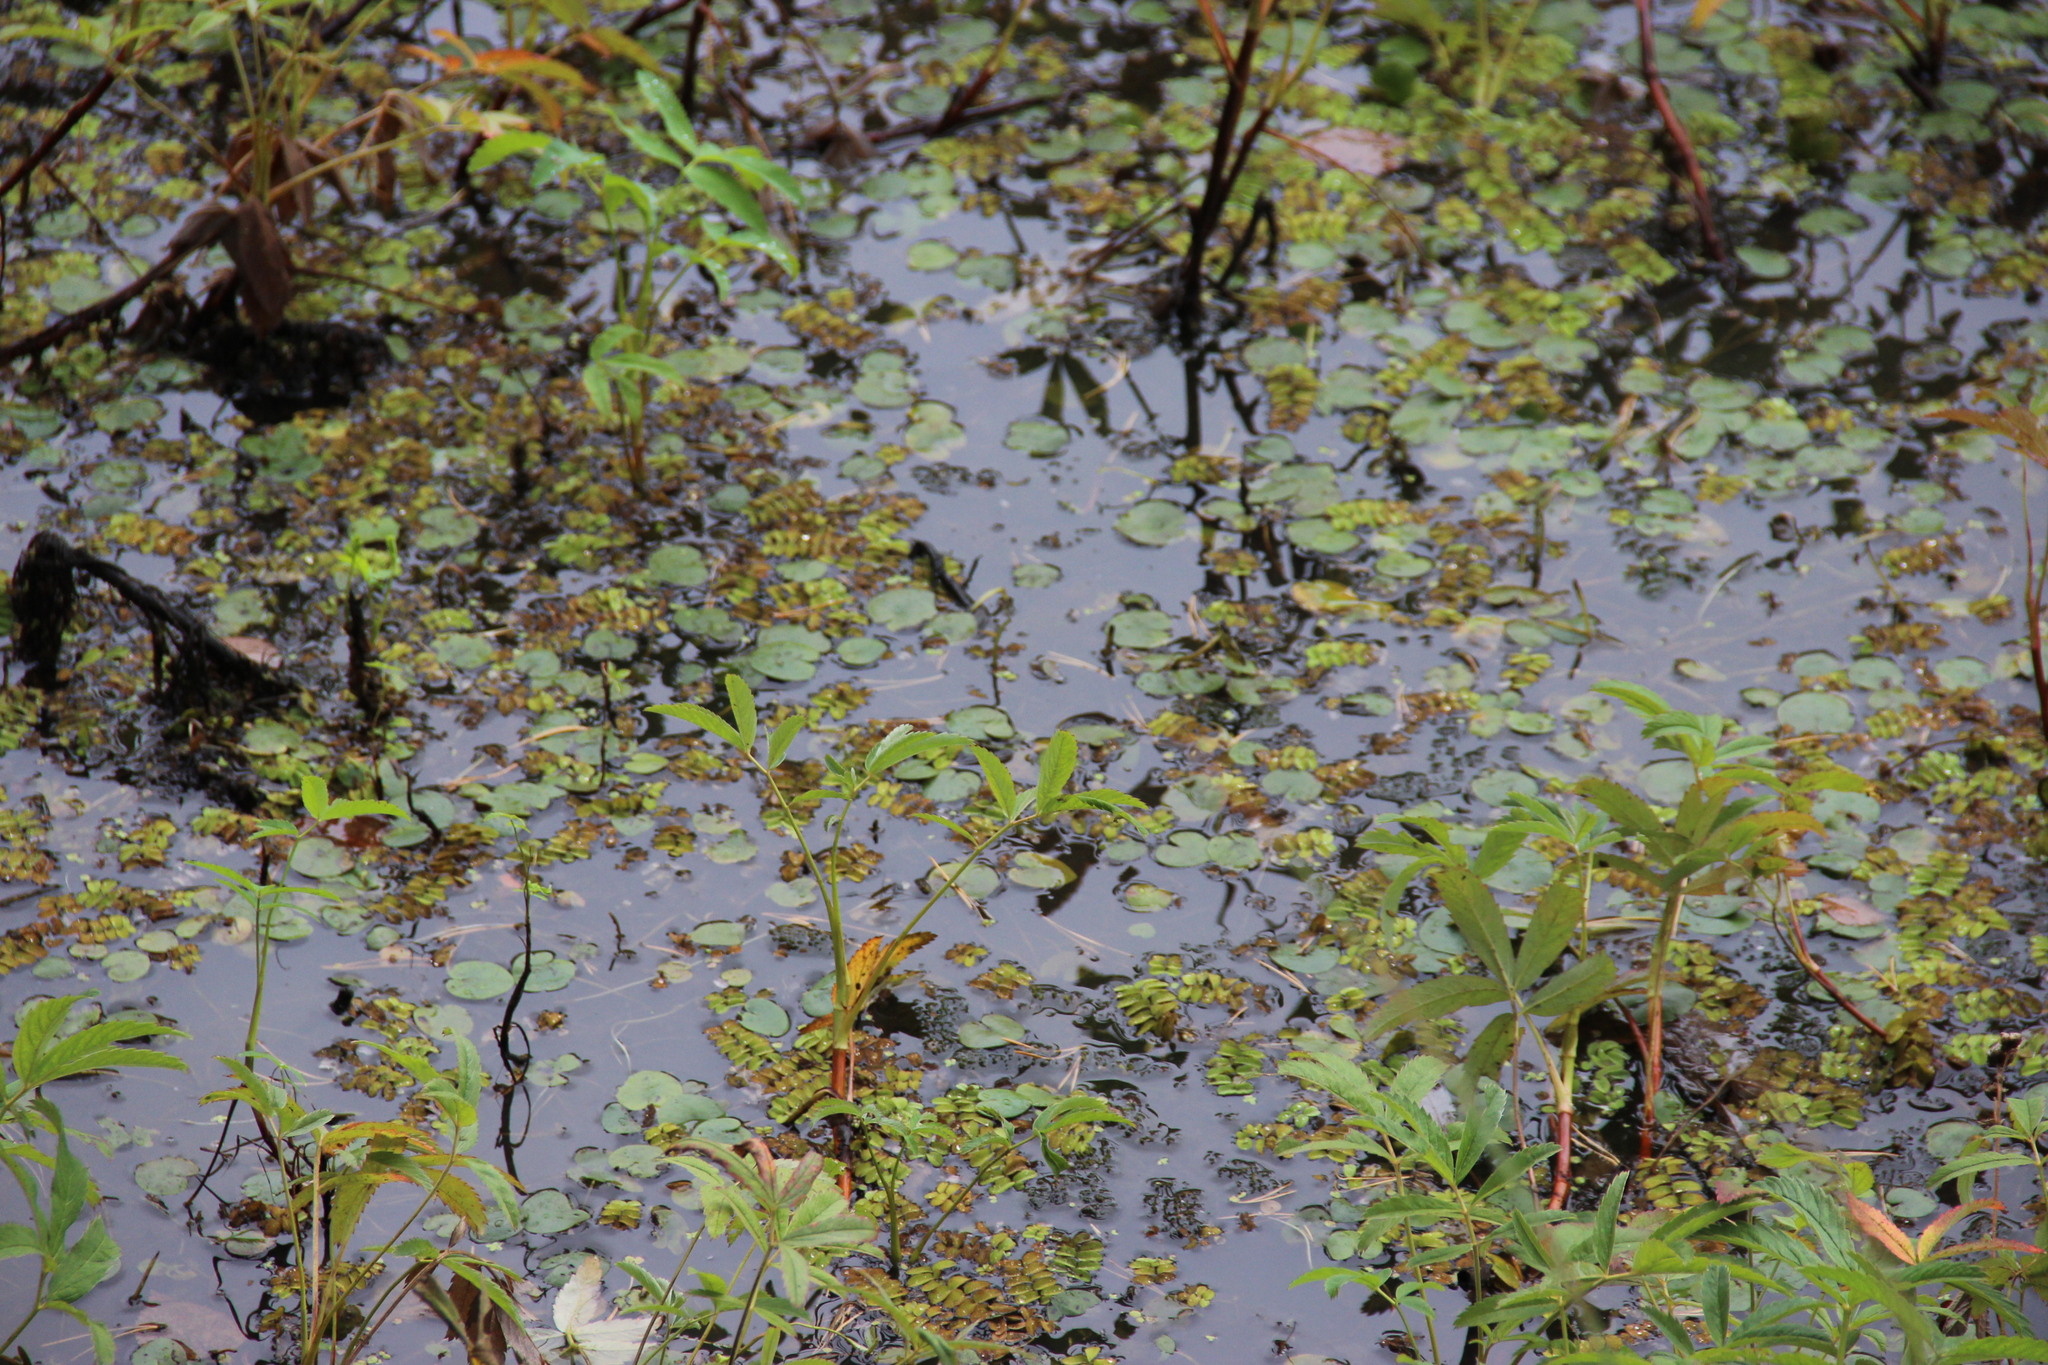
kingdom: Plantae
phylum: Tracheophyta
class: Polypodiopsida
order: Salviniales
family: Salviniaceae
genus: Salvinia
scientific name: Salvinia natans
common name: Floating fern
